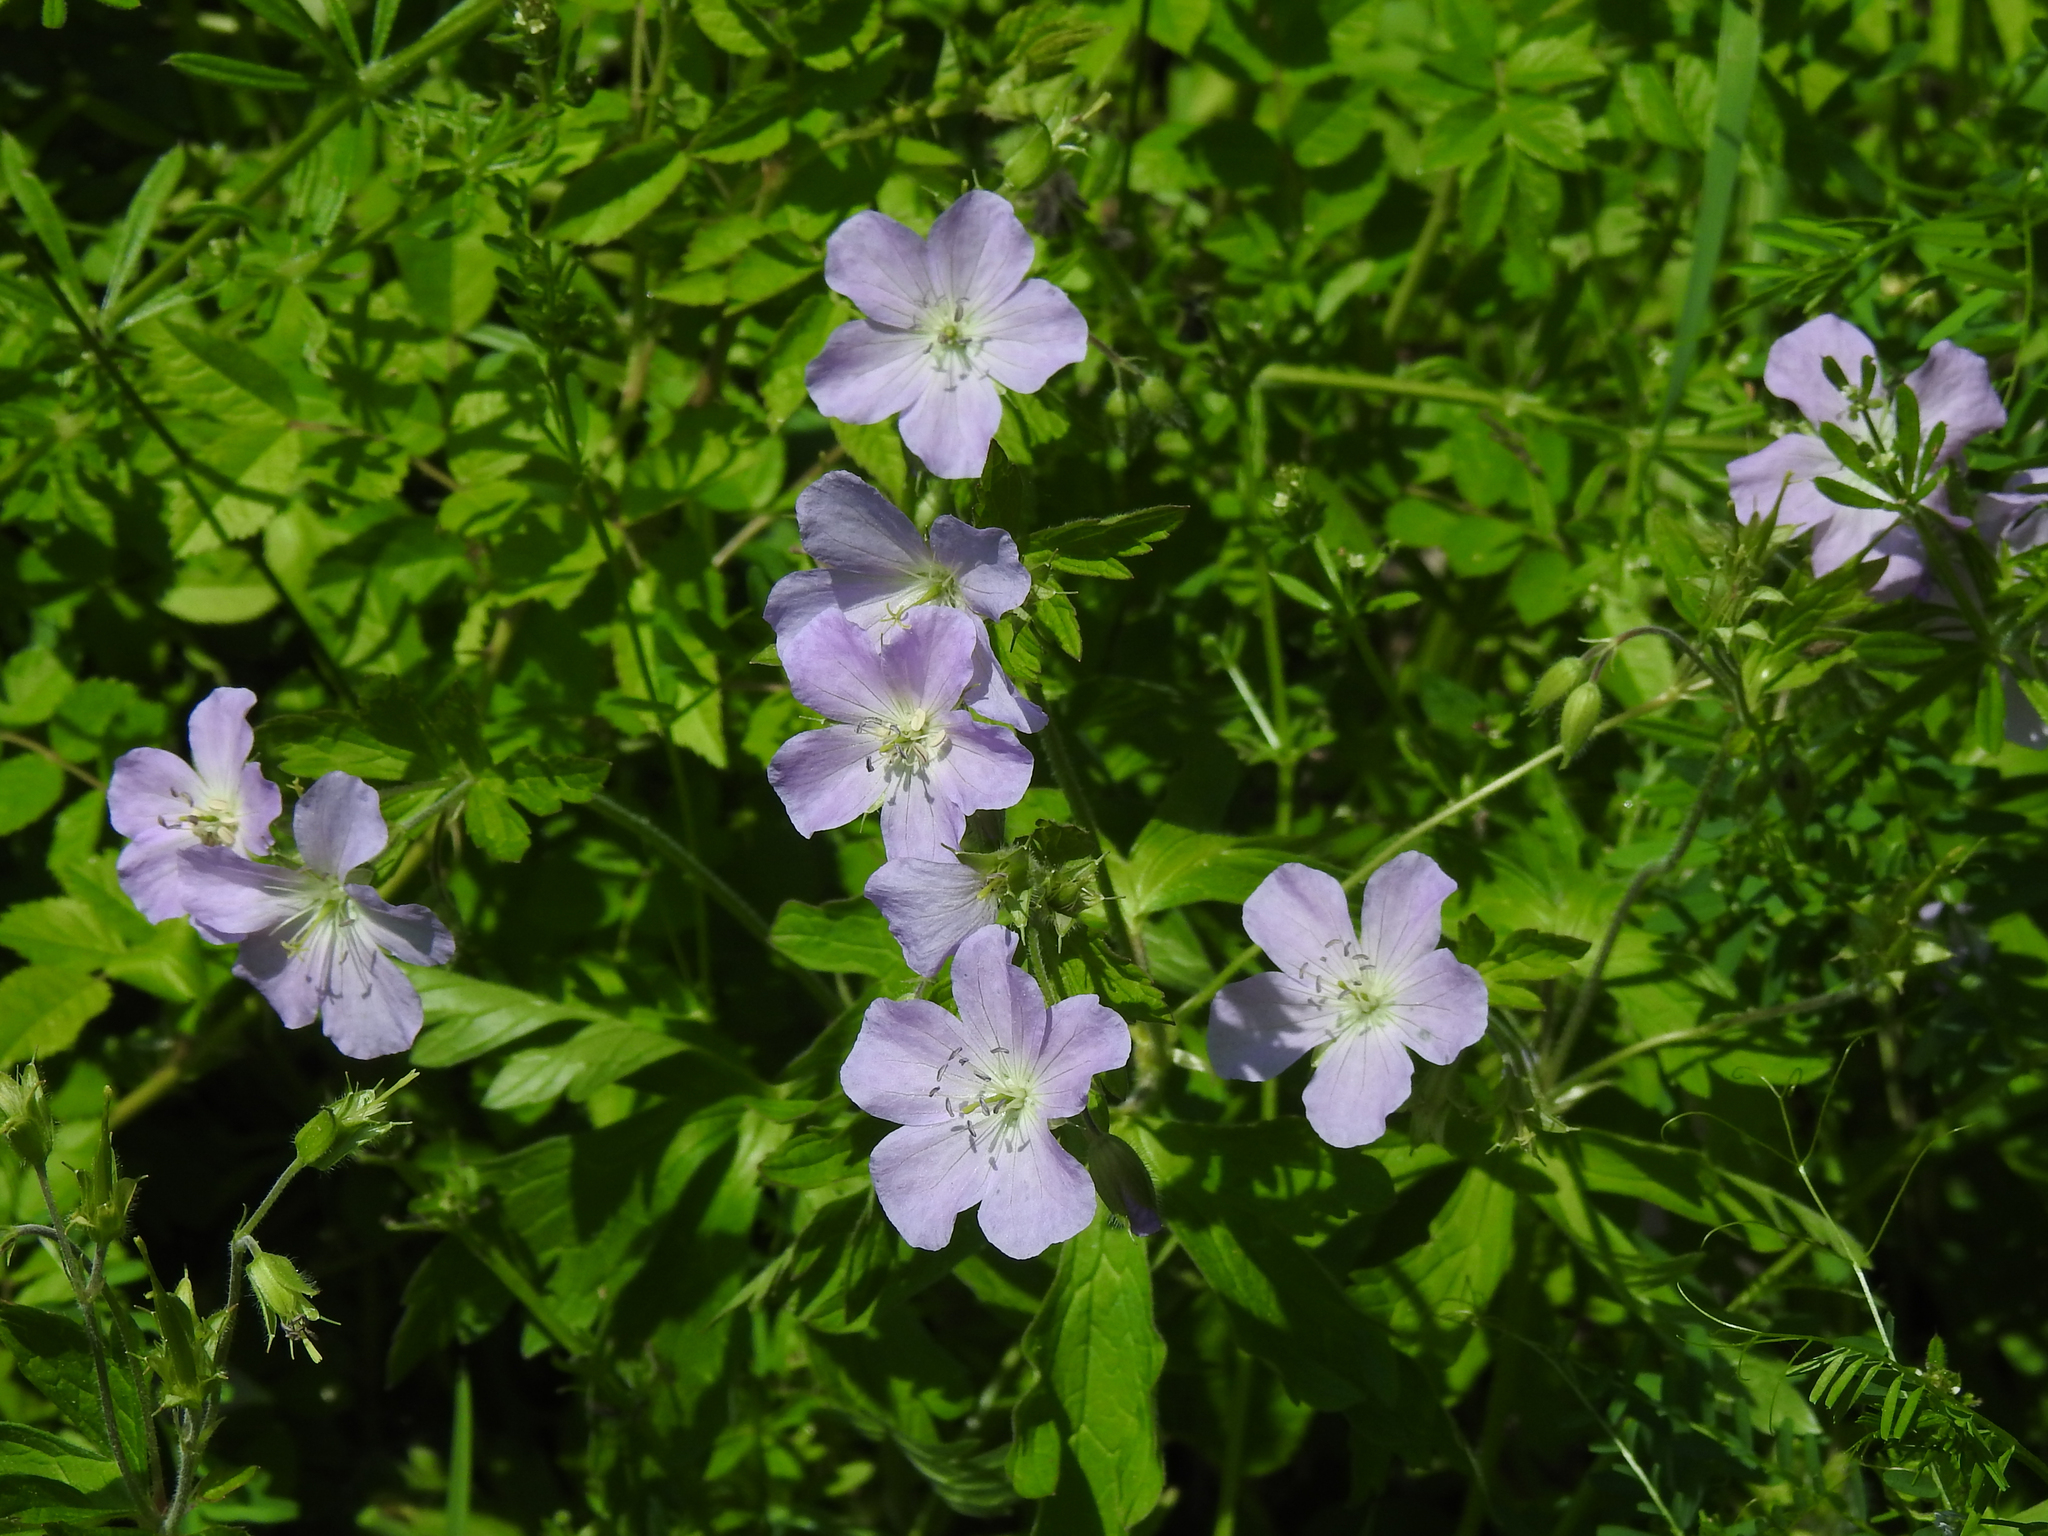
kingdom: Plantae
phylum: Tracheophyta
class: Magnoliopsida
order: Geraniales
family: Geraniaceae
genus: Geranium
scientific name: Geranium maculatum
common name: Spotted geranium
